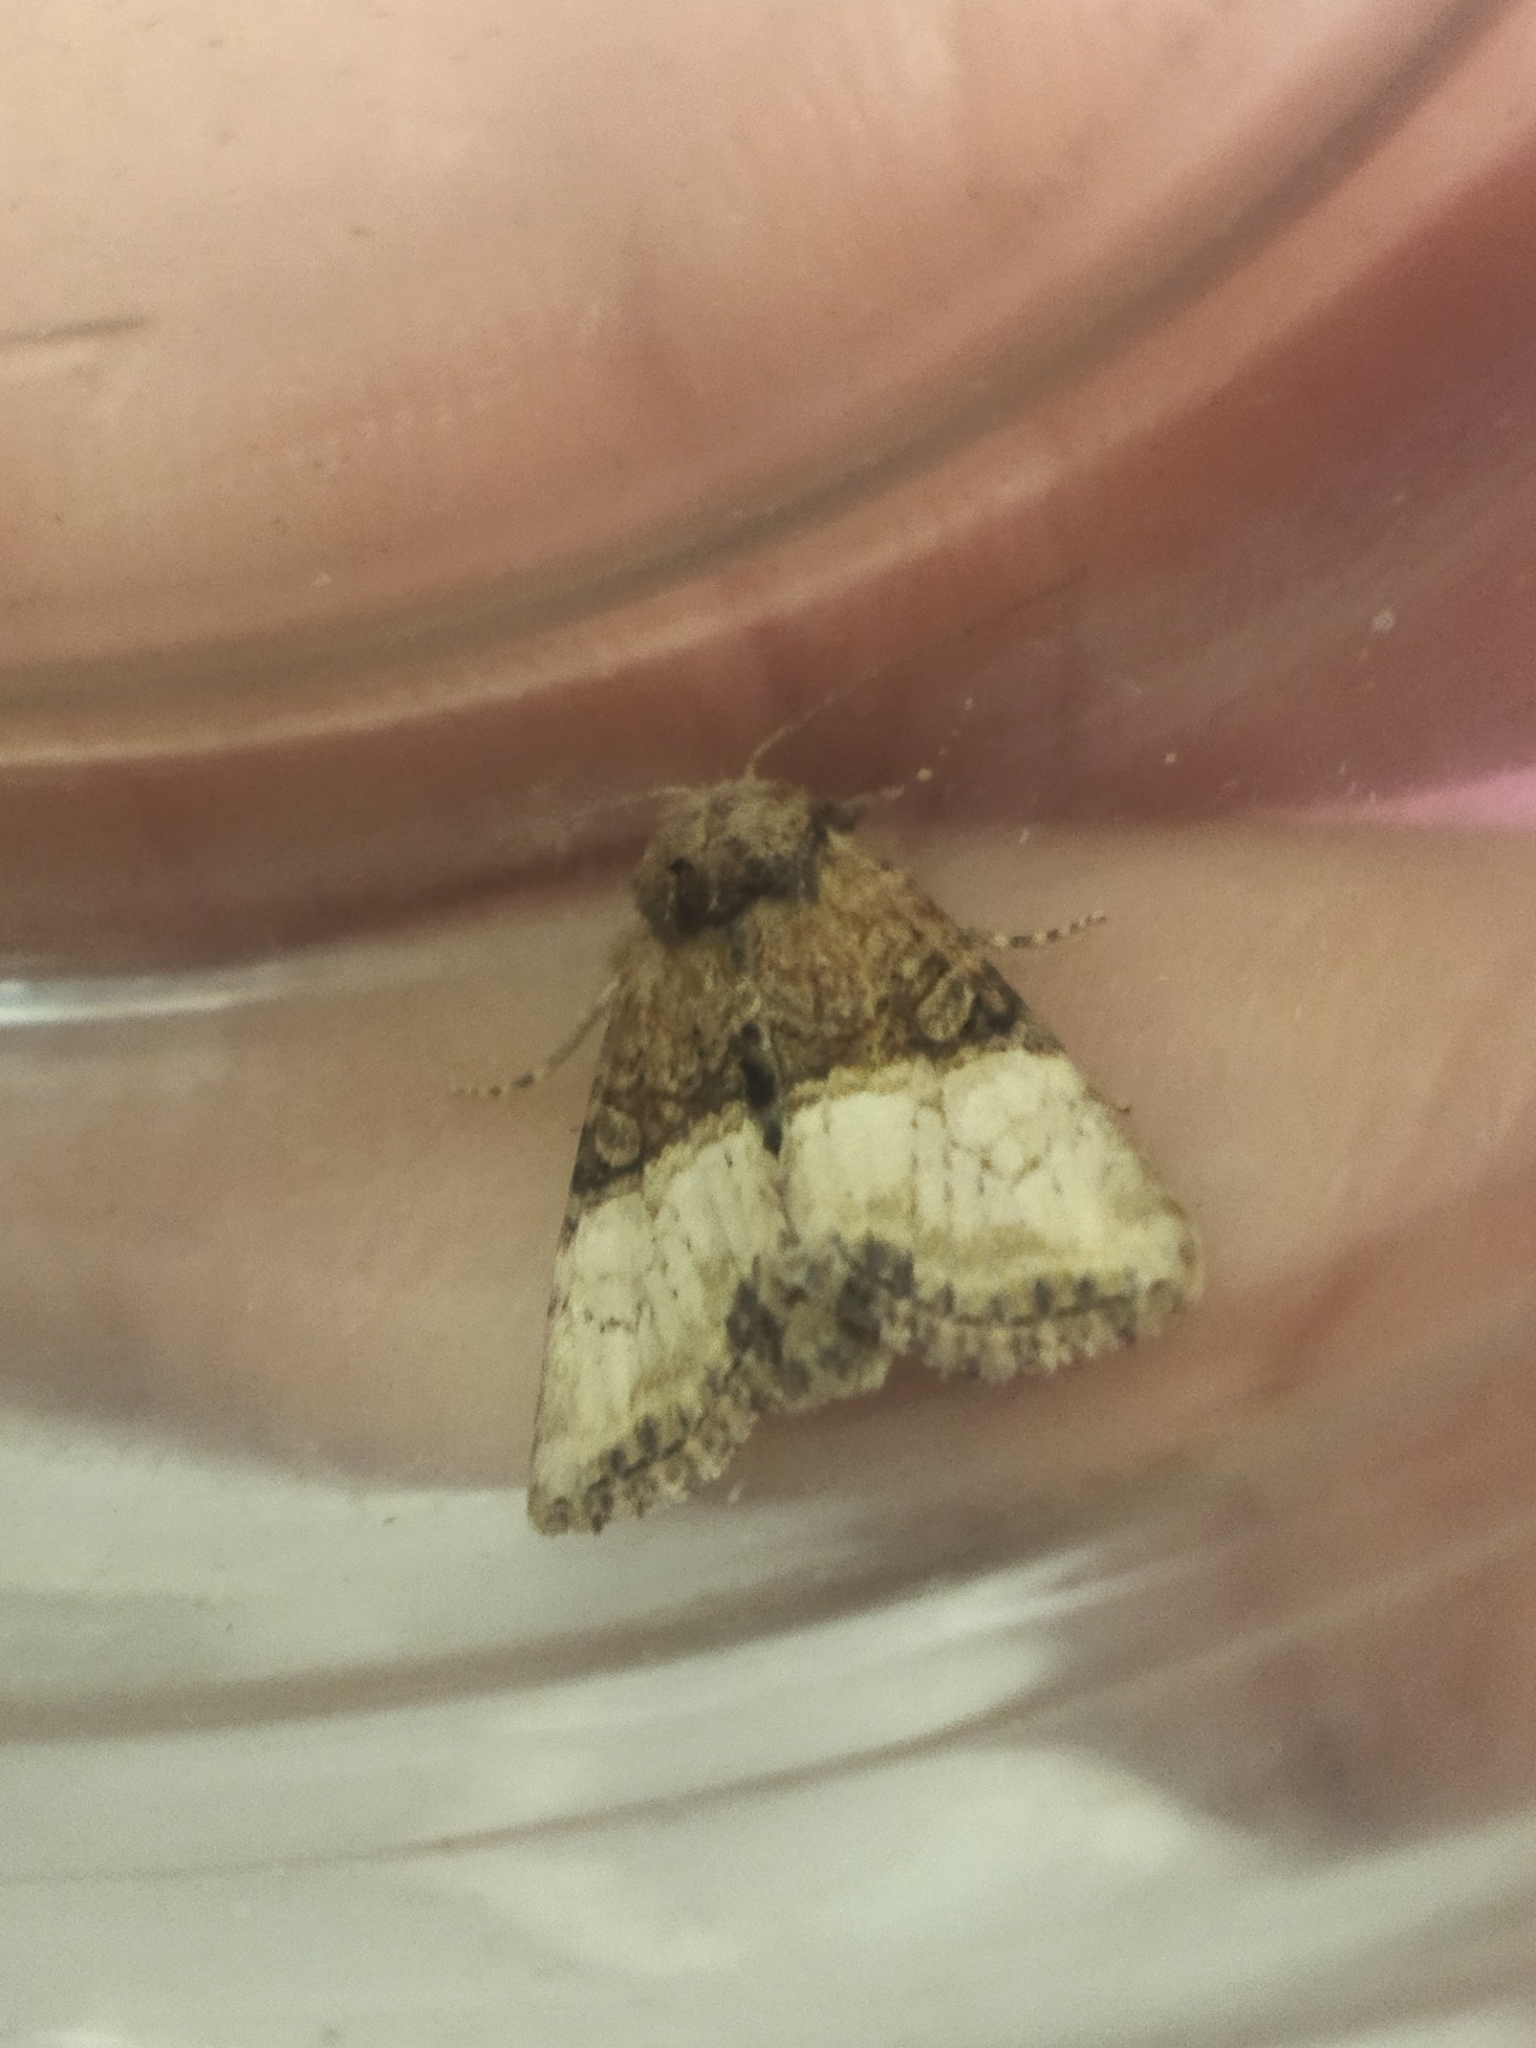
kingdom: Animalia
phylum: Arthropoda
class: Insecta
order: Lepidoptera
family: Noctuidae
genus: Mesoligia
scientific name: Mesoligia furuncula
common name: Cloaked minor
